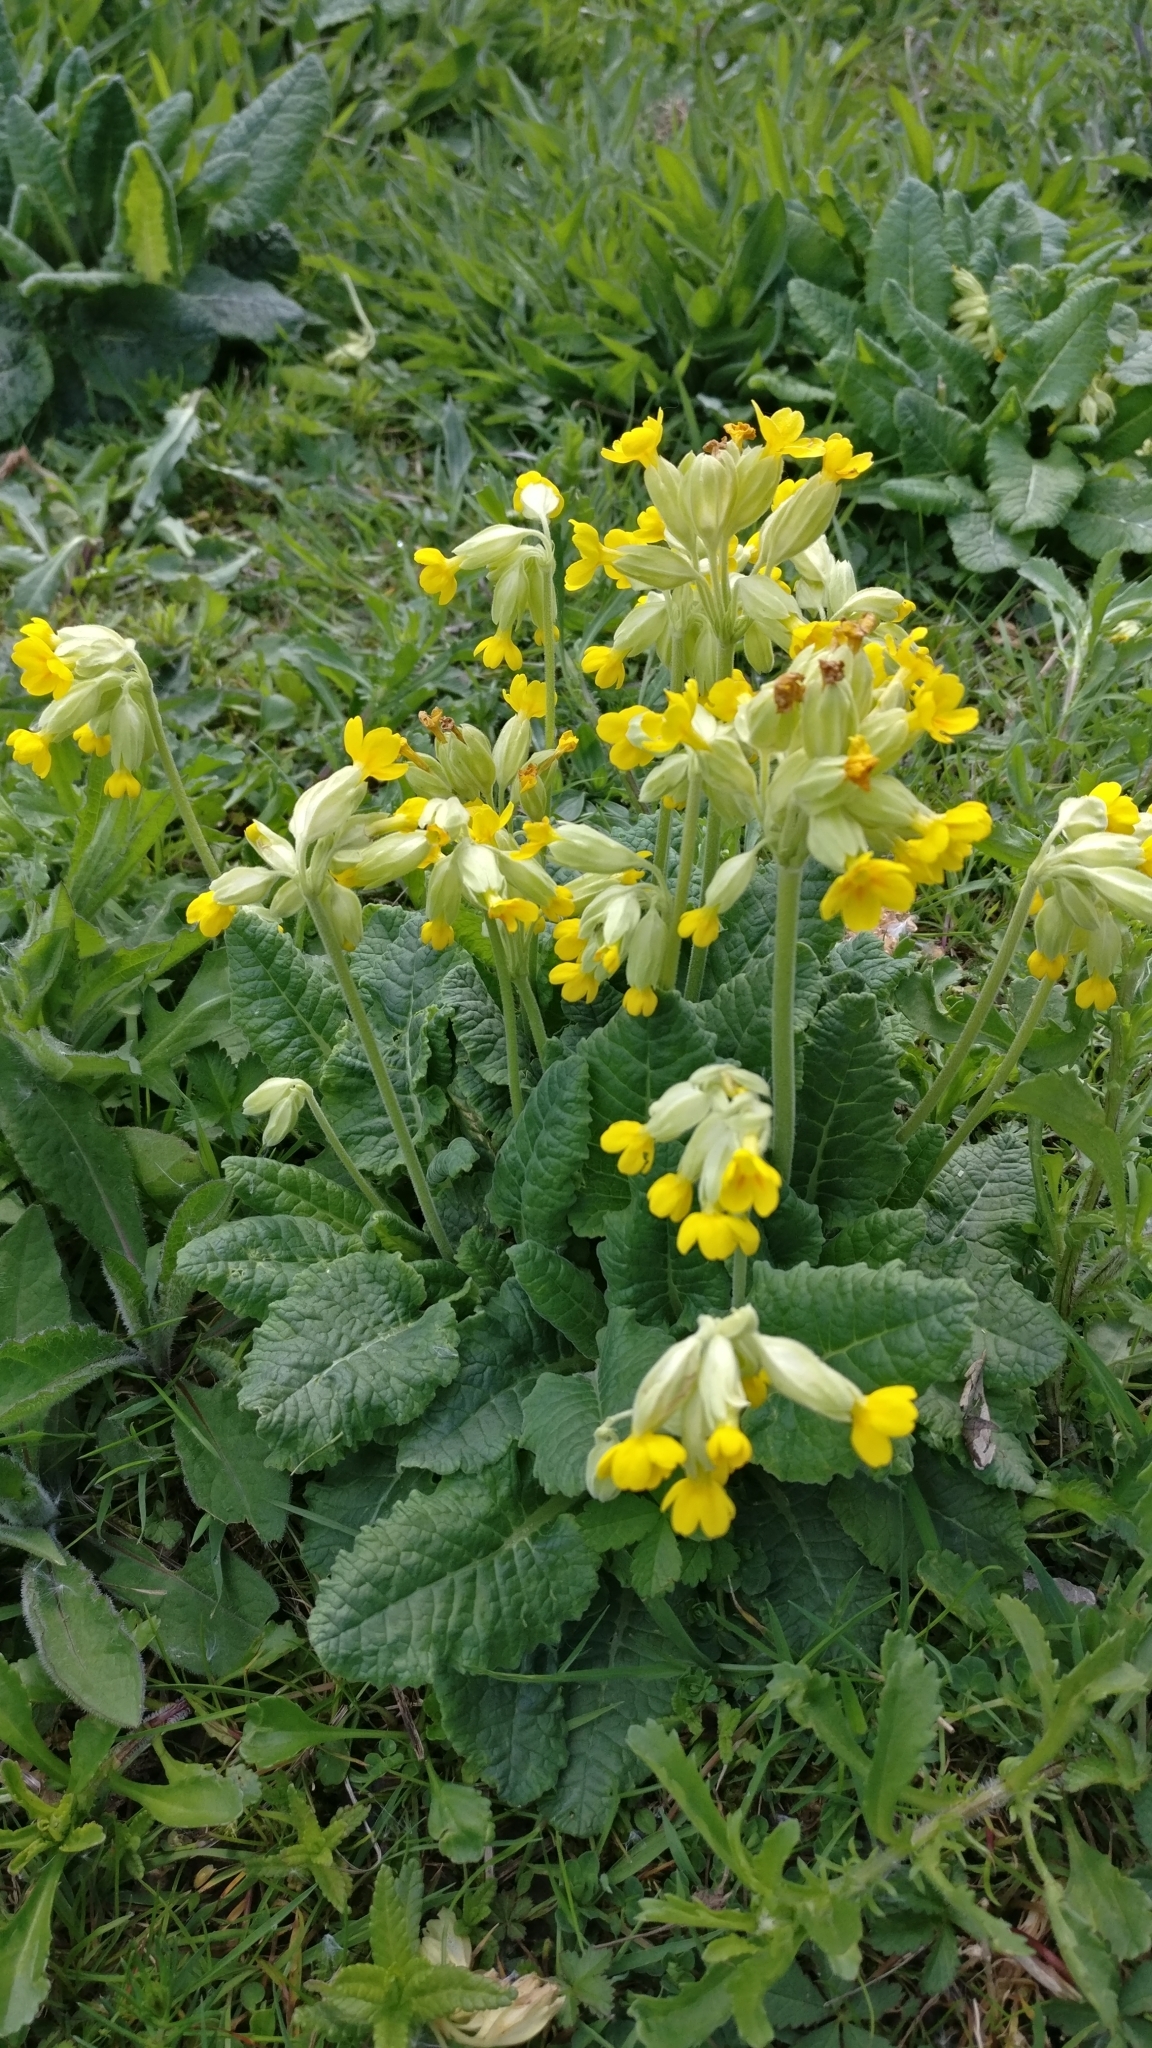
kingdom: Plantae
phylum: Tracheophyta
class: Magnoliopsida
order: Ericales
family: Primulaceae
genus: Primula
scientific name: Primula veris
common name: Cowslip
